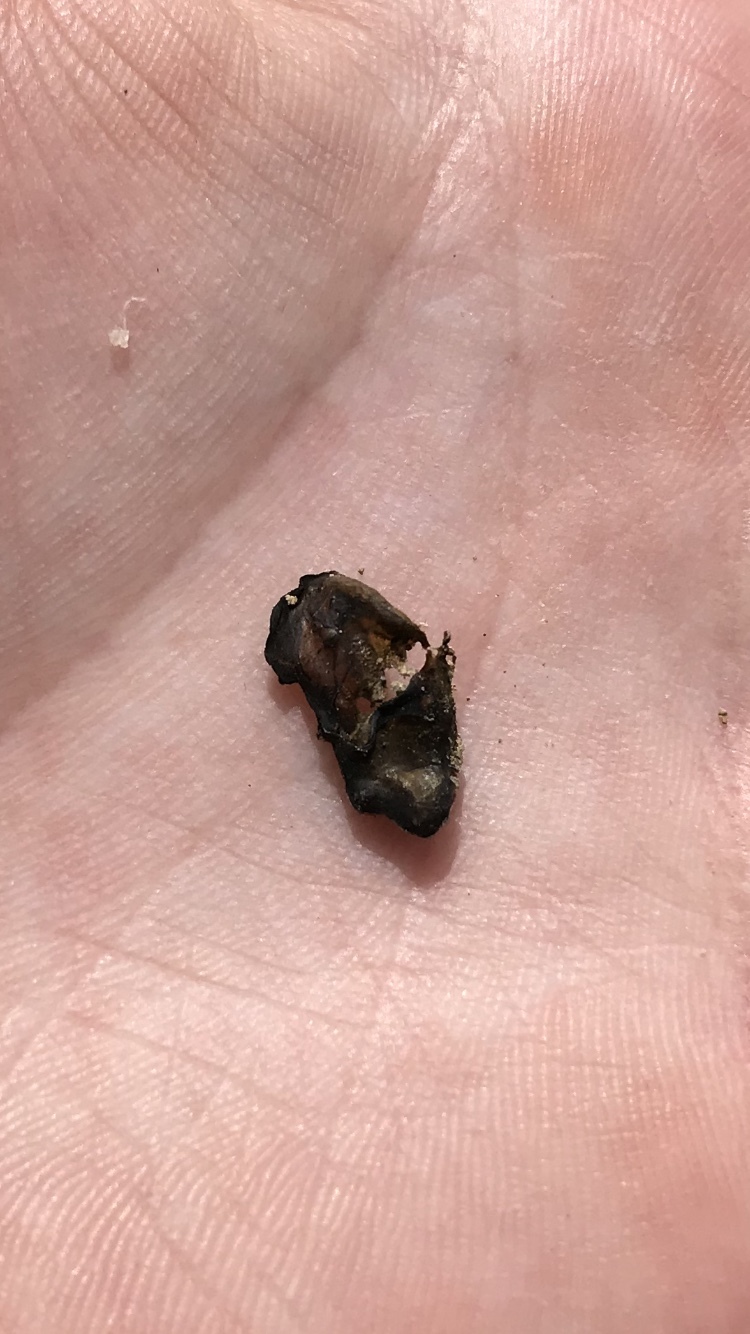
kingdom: Bacteria
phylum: Cyanobacteria
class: Cyanobacteriia
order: Cyanobacteriales
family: Nostocaceae
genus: Nostoc
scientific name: Nostoc commune
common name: Star jelly
